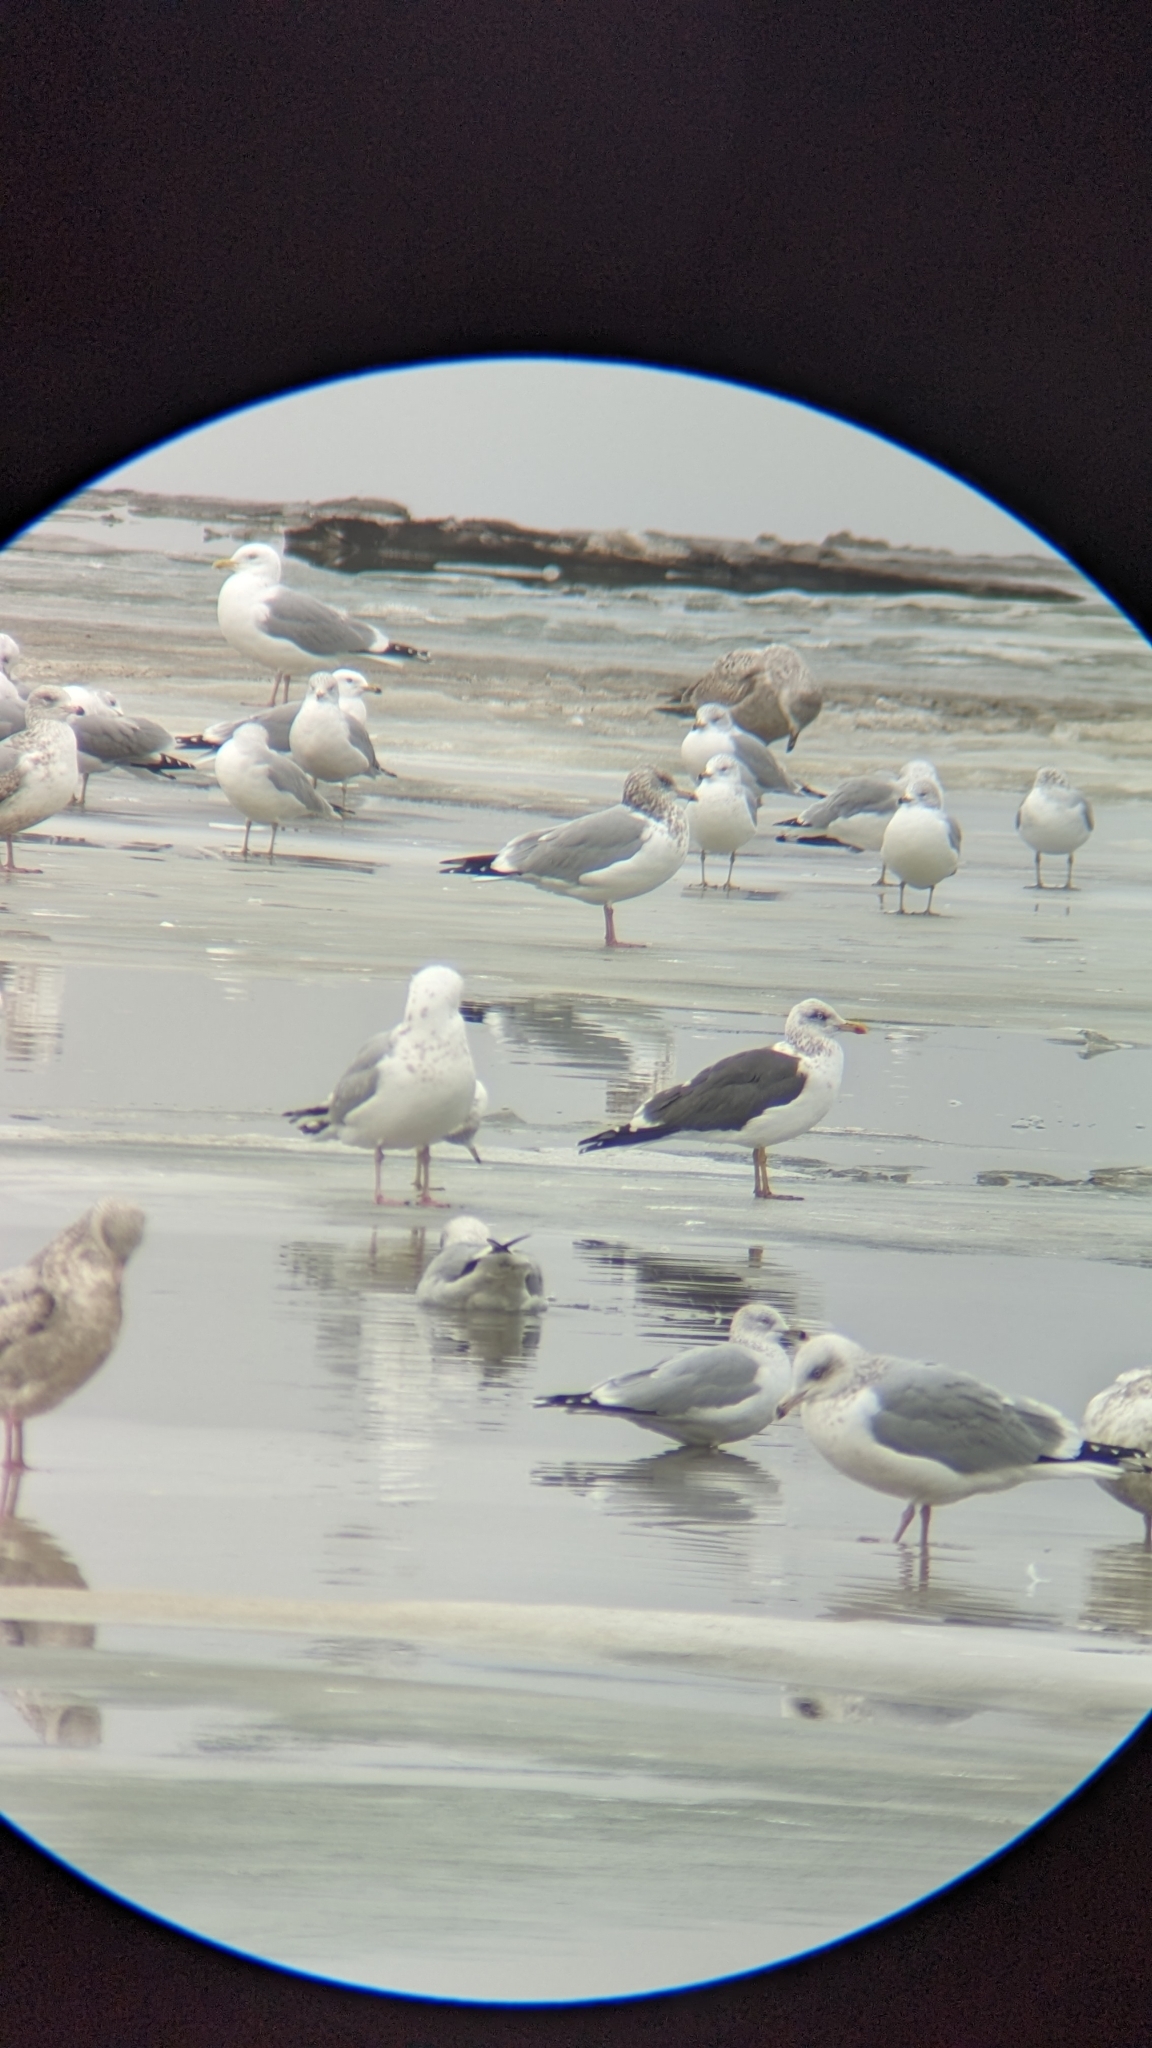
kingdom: Animalia
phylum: Chordata
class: Aves
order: Charadriiformes
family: Laridae
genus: Larus
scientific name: Larus argentatus
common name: Herring gull
